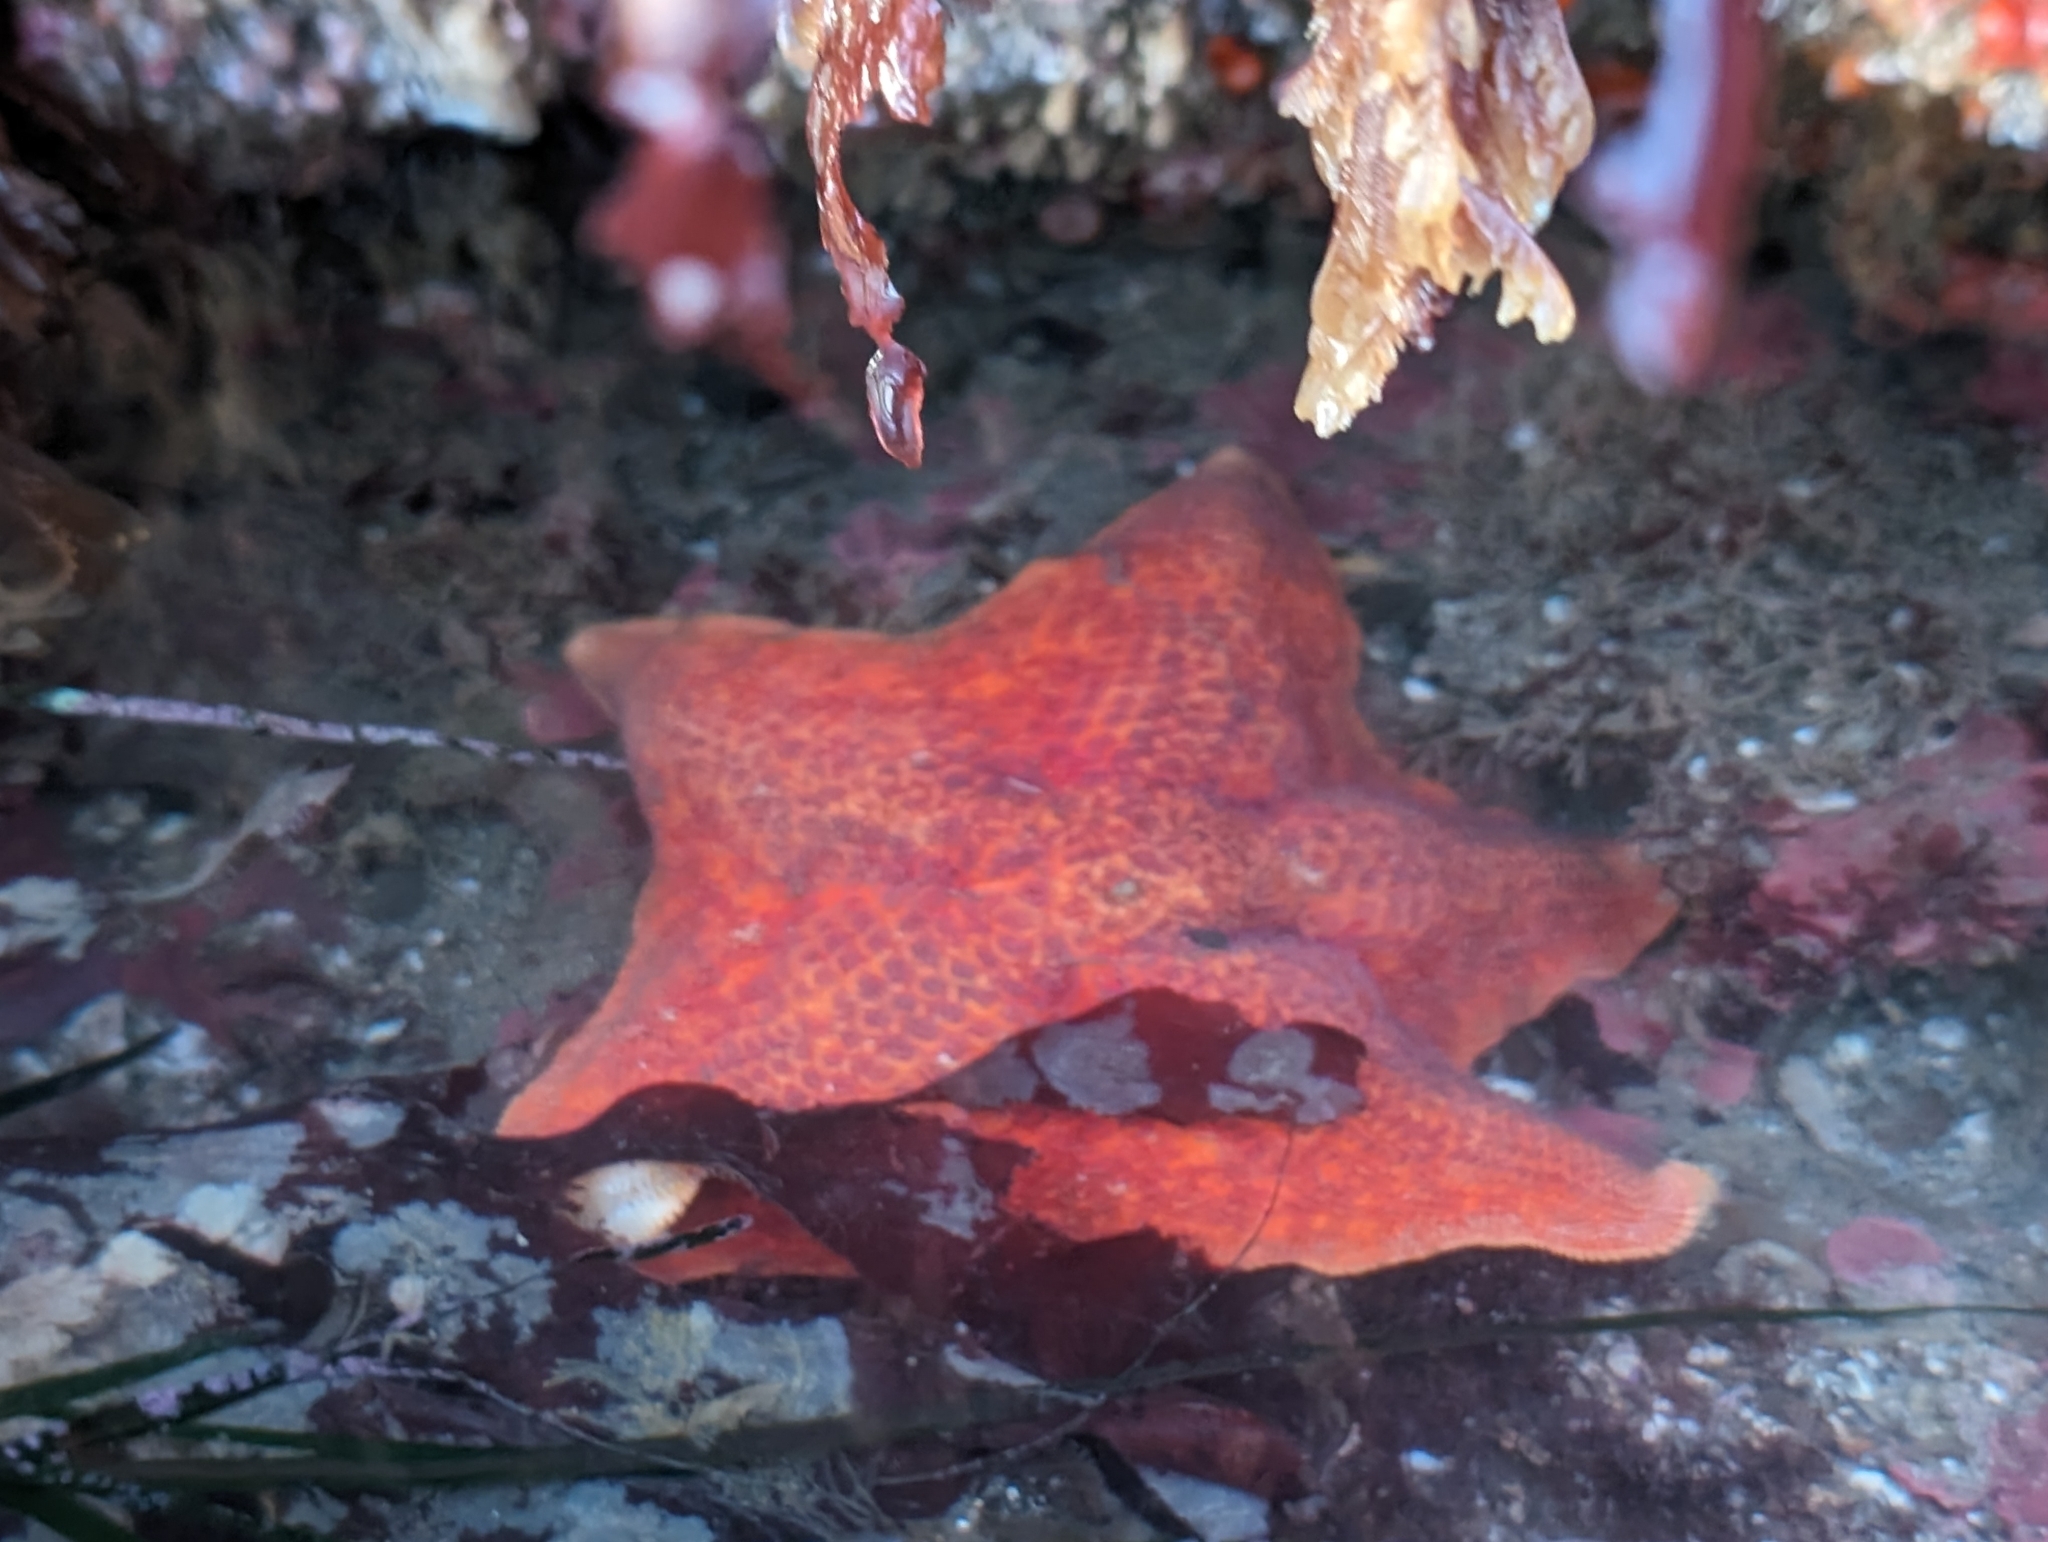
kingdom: Animalia
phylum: Echinodermata
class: Asteroidea
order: Valvatida
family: Asterinidae
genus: Patiria
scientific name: Patiria miniata
